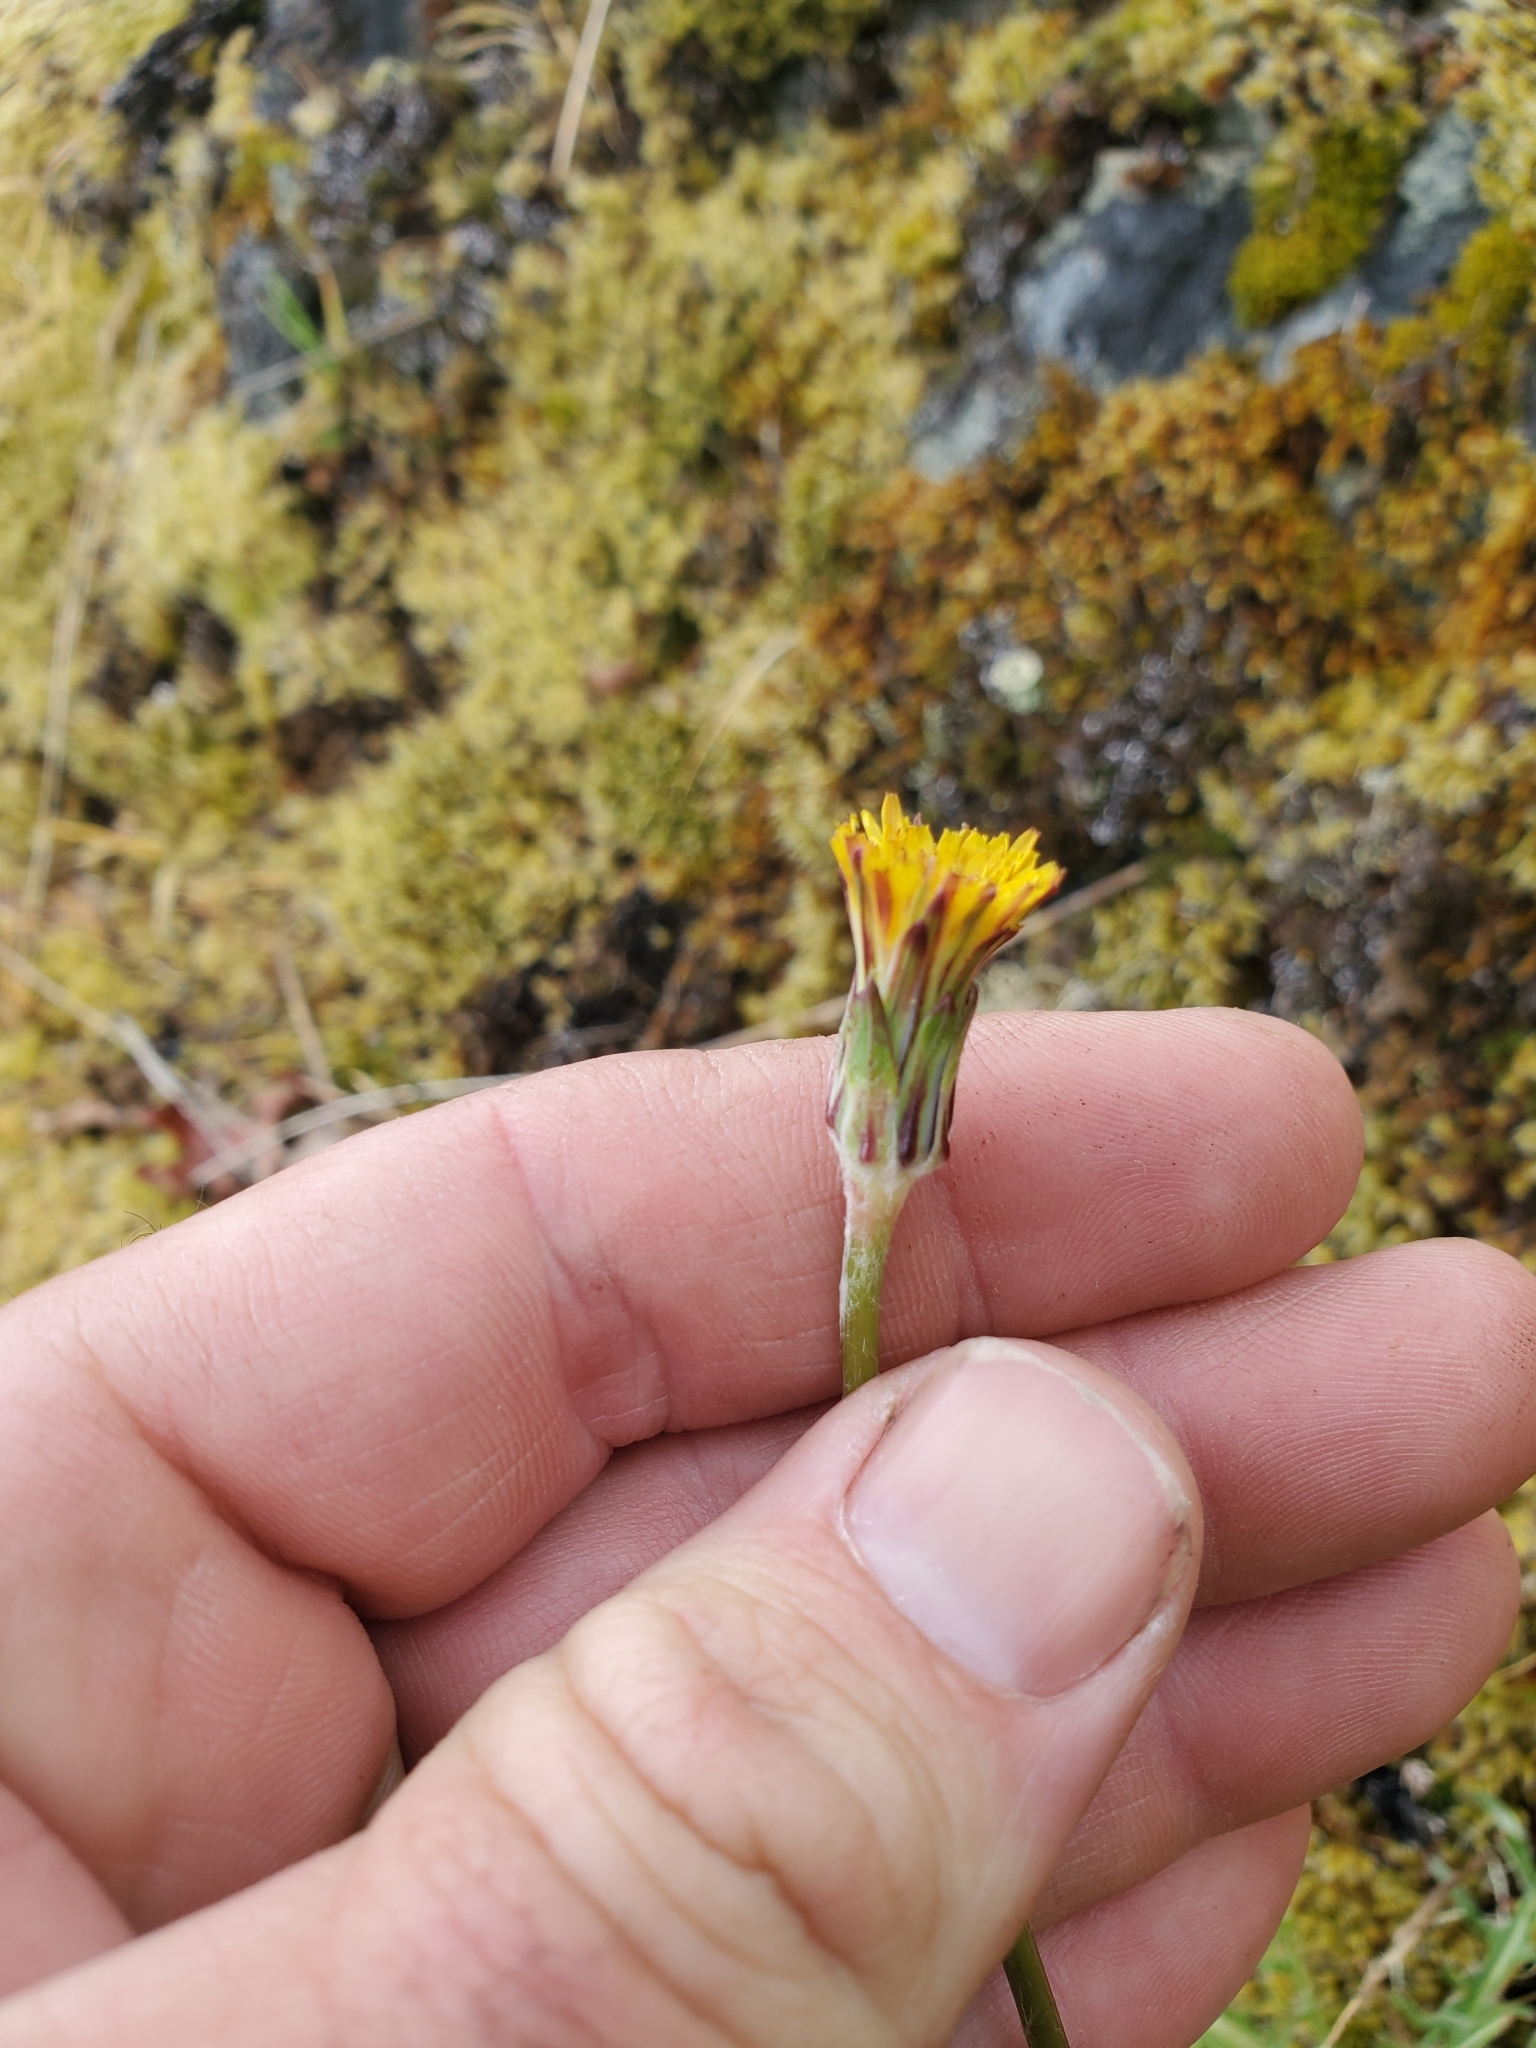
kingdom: Plantae
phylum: Tracheophyta
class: Magnoliopsida
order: Asterales
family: Asteraceae
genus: Agoseris
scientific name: Agoseris grandiflora
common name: Grassland agoseris
